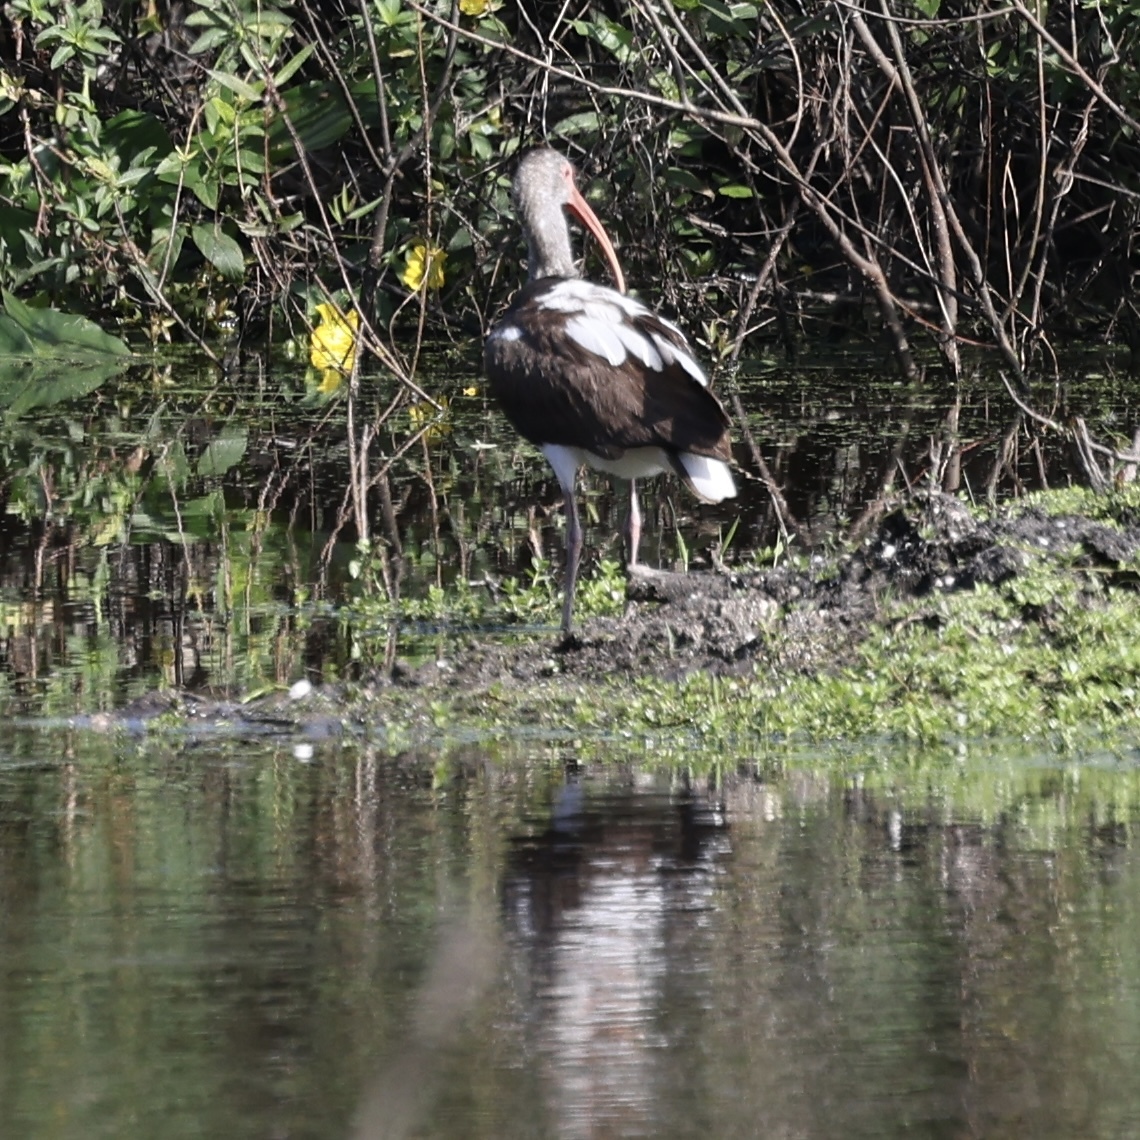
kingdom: Animalia
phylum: Chordata
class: Aves
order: Pelecaniformes
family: Threskiornithidae
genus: Eudocimus
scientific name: Eudocimus albus
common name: White ibis
